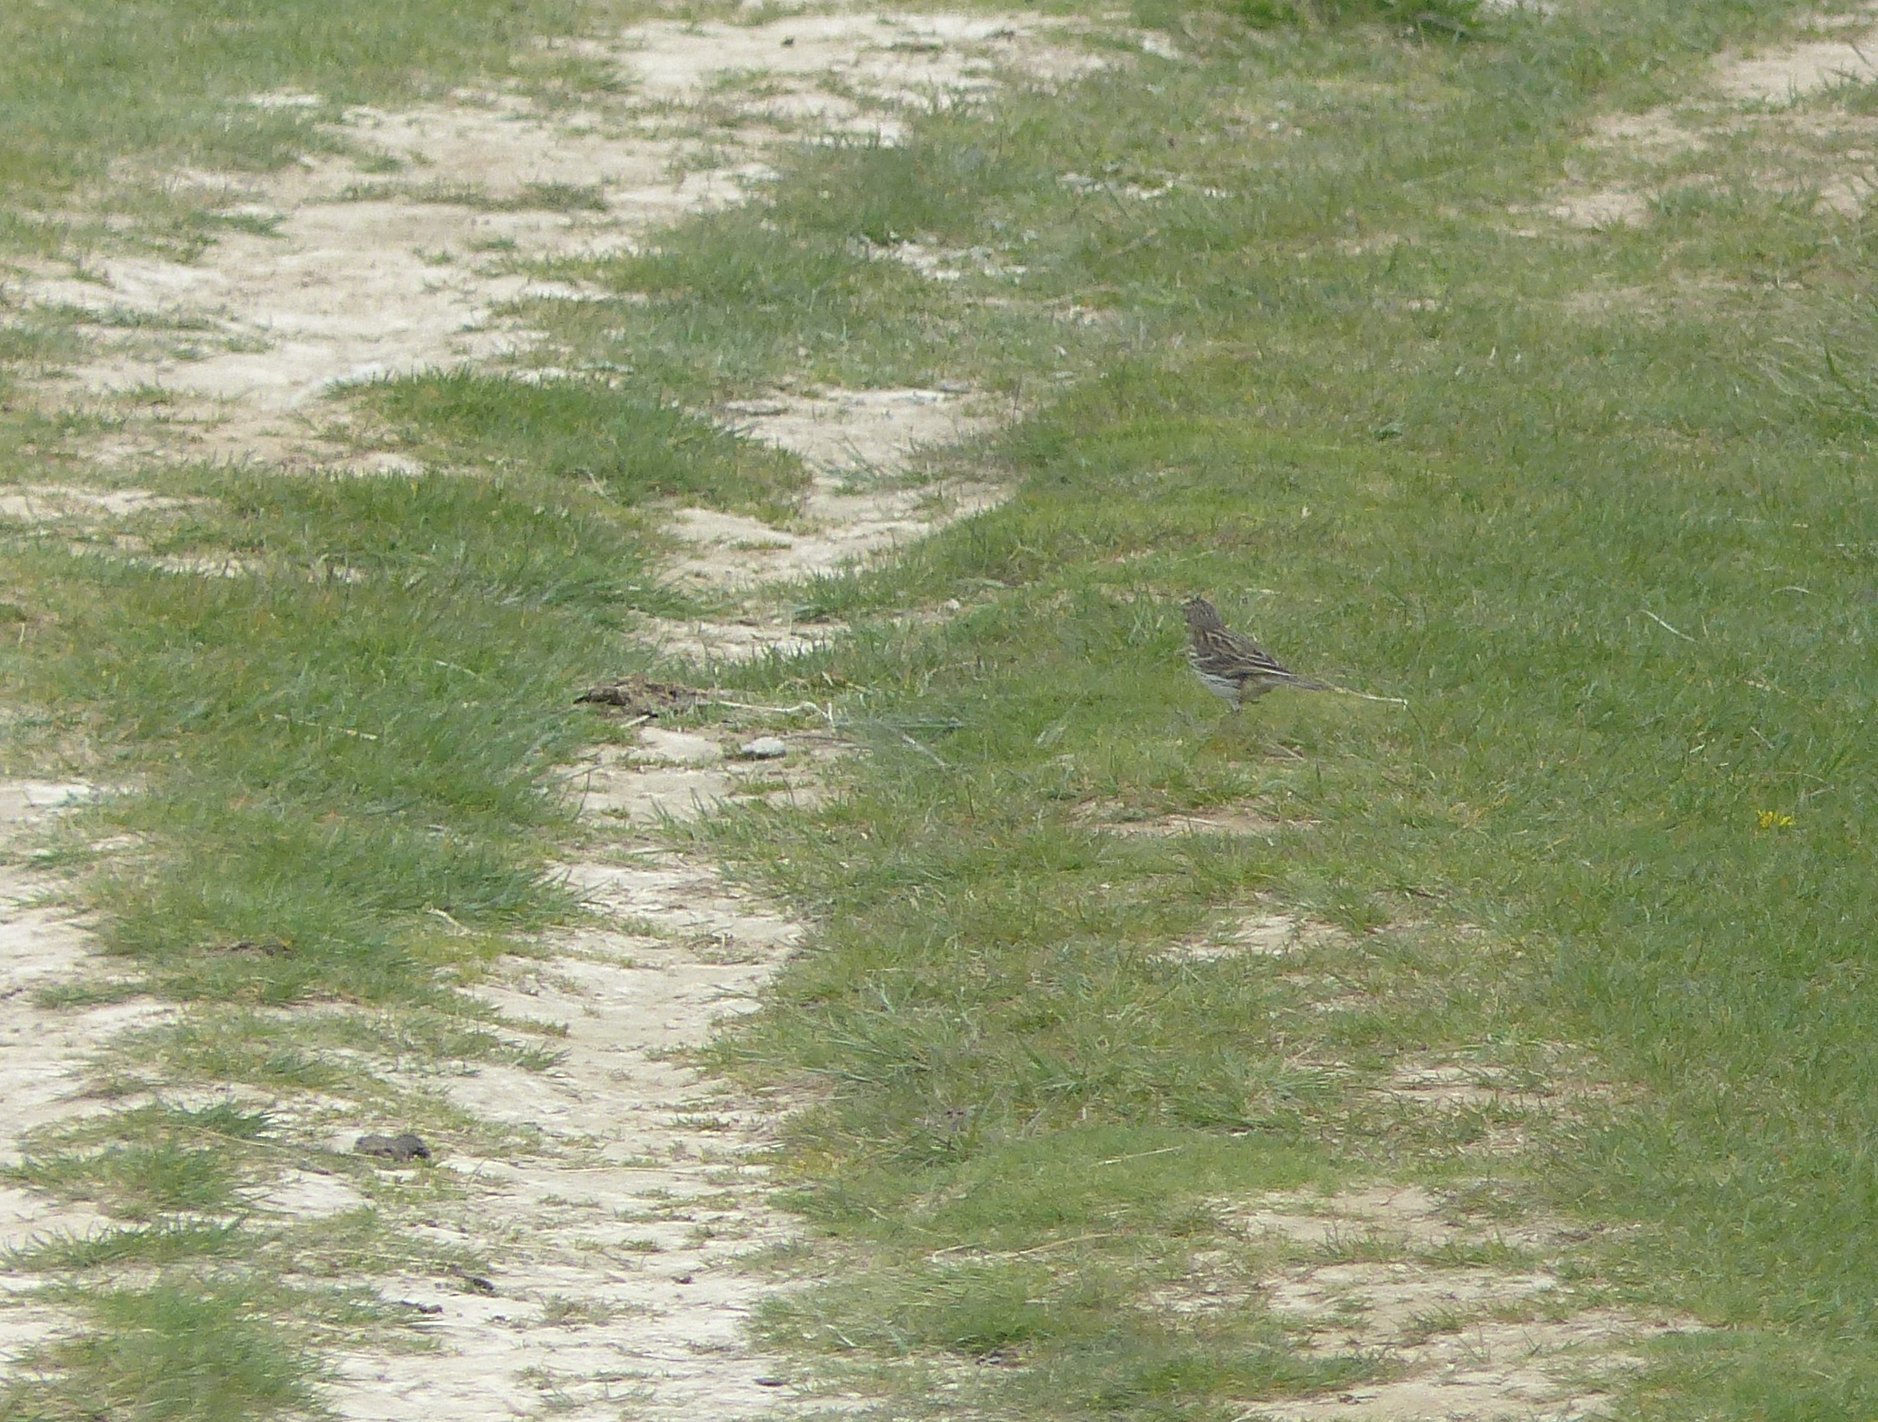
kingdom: Animalia
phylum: Chordata
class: Aves
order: Passeriformes
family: Motacillidae
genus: Anthus
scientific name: Anthus pratensis
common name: Meadow pipit
